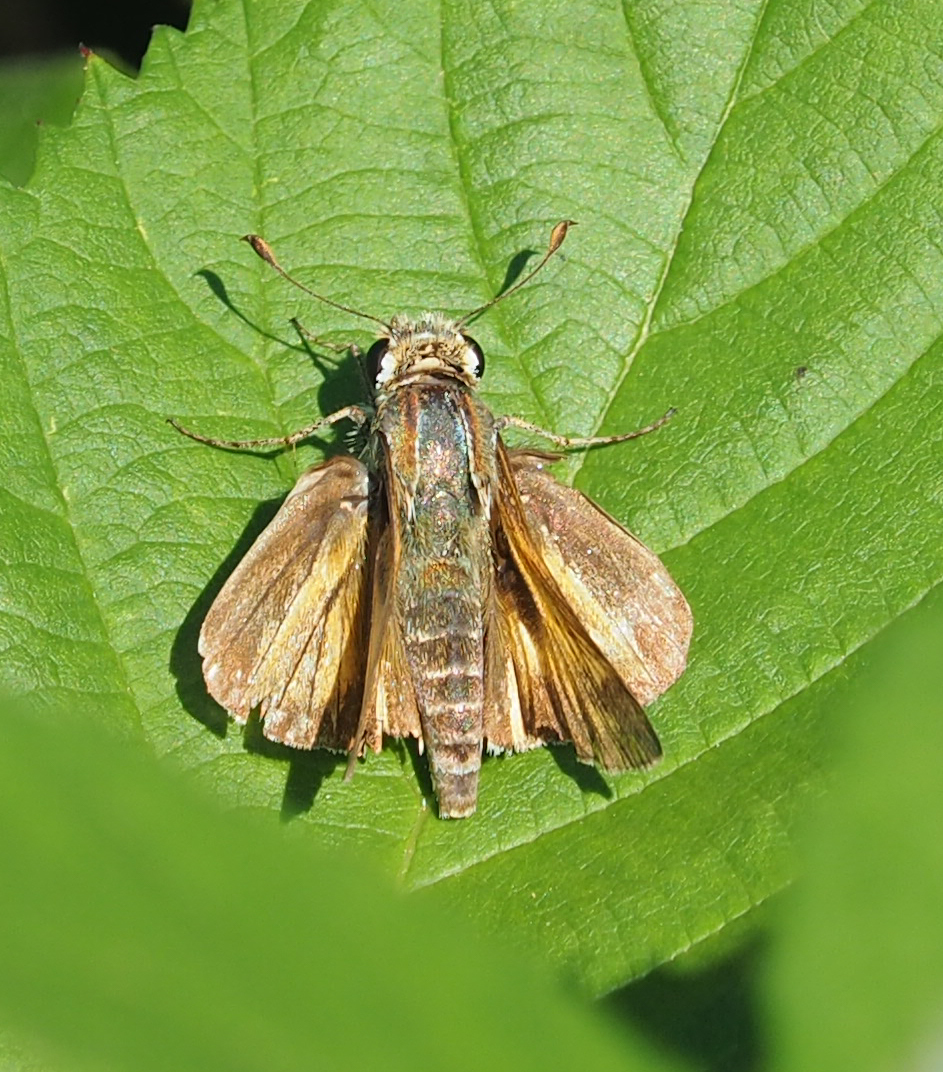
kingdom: Animalia
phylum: Arthropoda
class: Insecta
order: Lepidoptera
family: Hesperiidae
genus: Atalopedes
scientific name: Atalopedes
